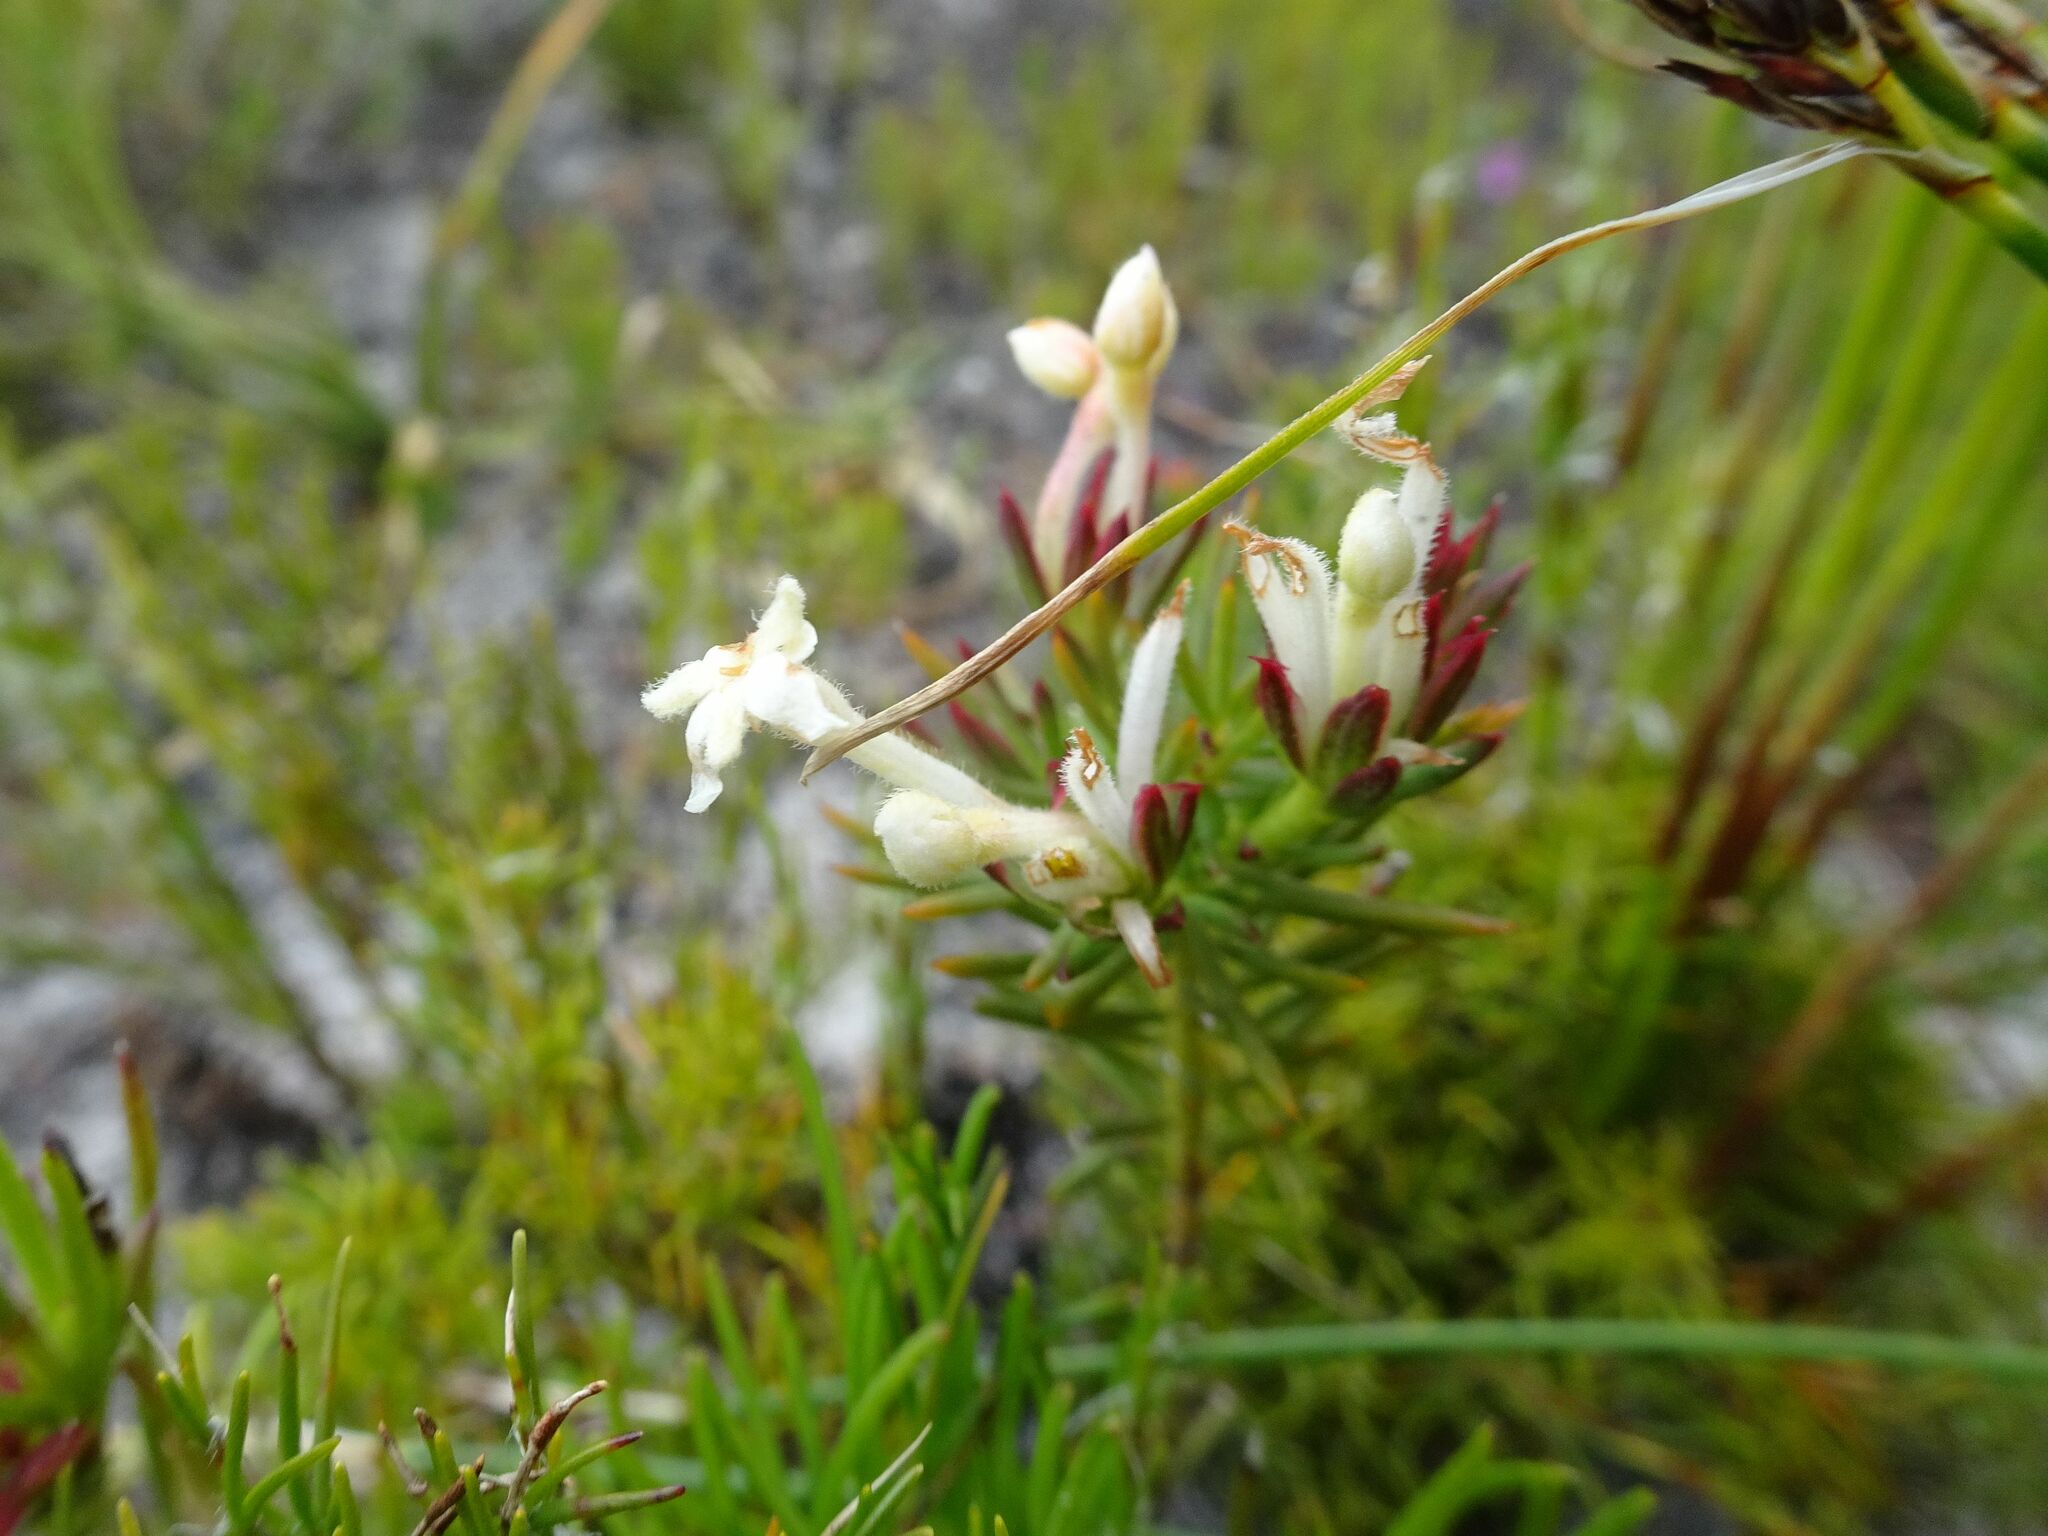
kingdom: Plantae
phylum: Tracheophyta
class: Magnoliopsida
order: Malvales
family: Thymelaeaceae
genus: Gnidia
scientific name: Gnidia pinifolia
